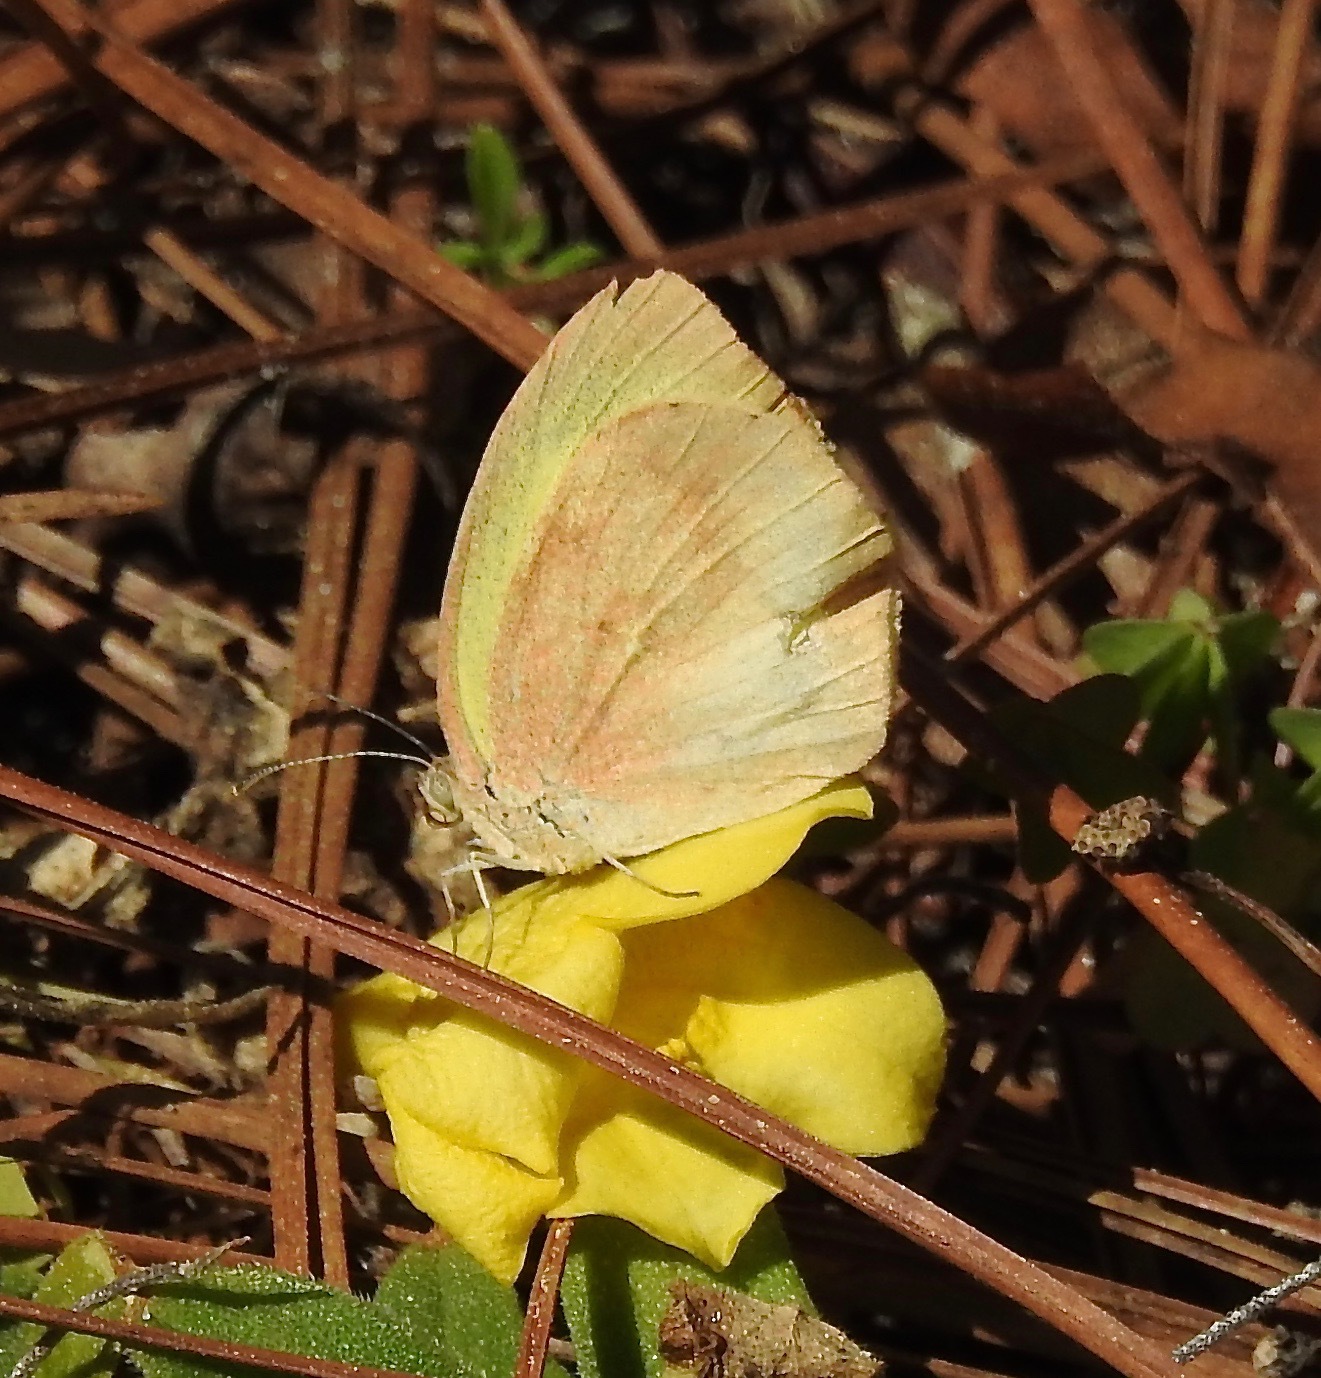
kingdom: Animalia
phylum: Arthropoda
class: Insecta
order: Lepidoptera
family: Pieridae
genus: Eurema
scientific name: Eurema daira
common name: Barred sulphur
